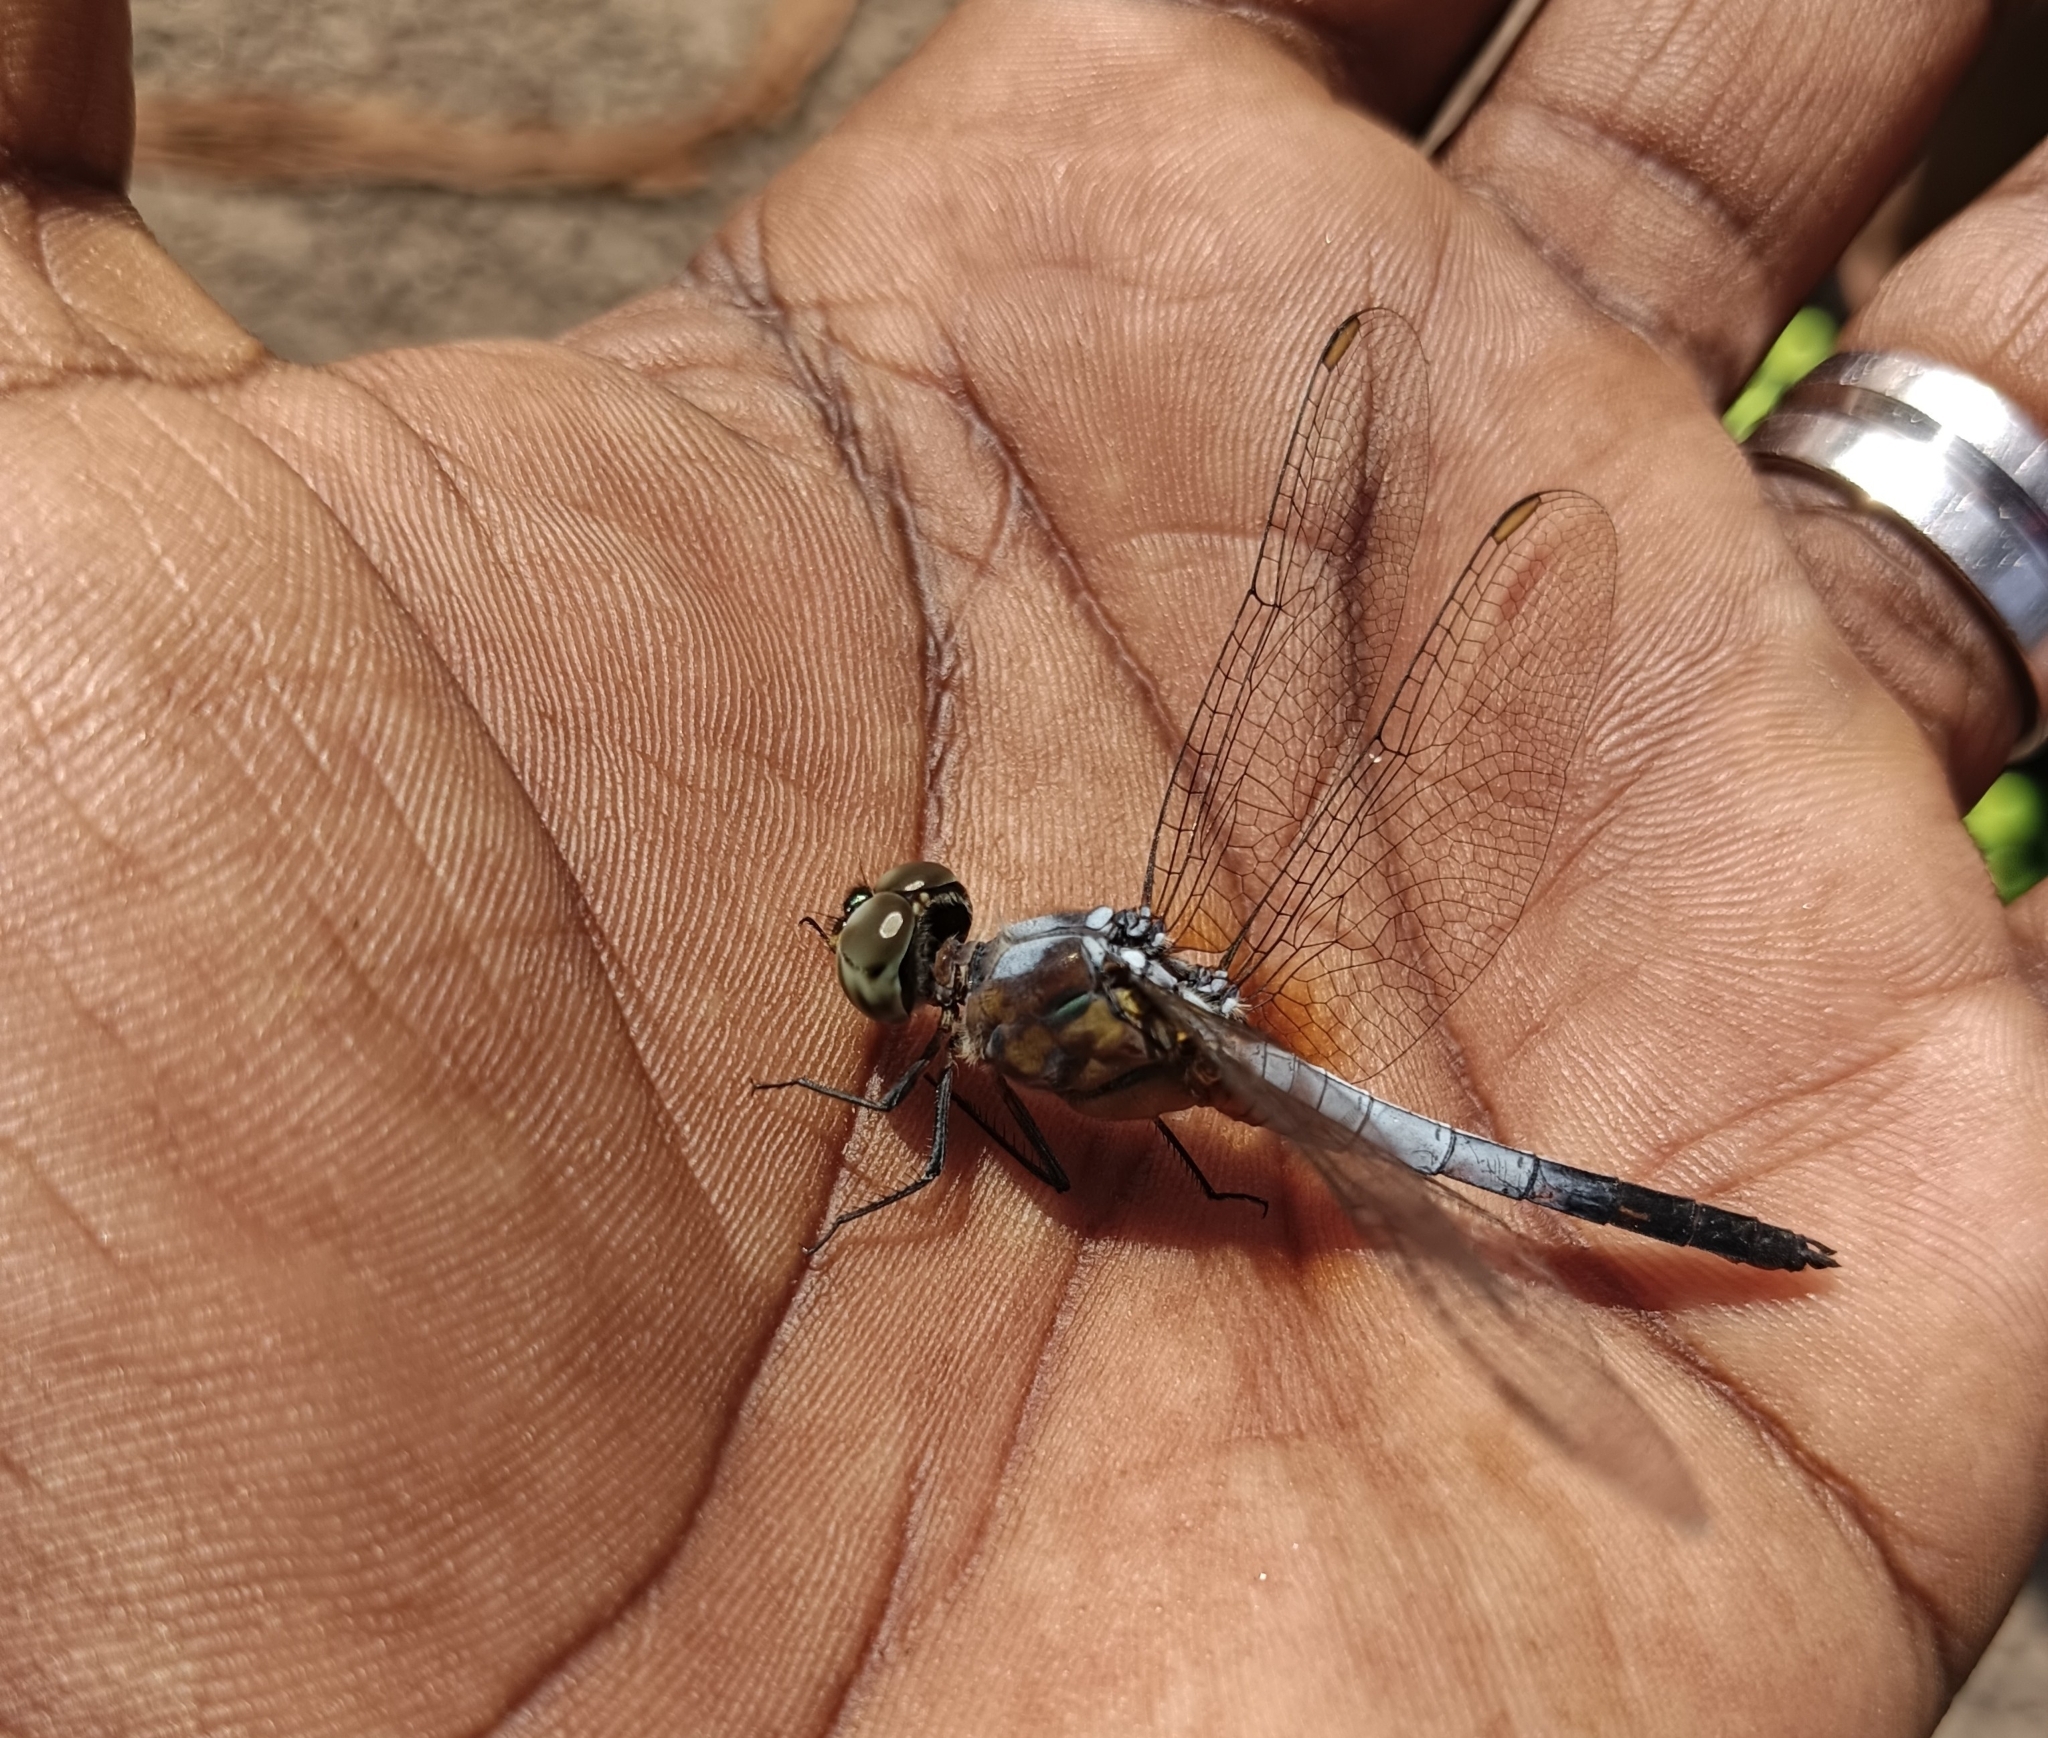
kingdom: Animalia
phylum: Arthropoda
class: Insecta
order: Odonata
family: Libellulidae
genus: Brachydiplax
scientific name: Brachydiplax chalybea
